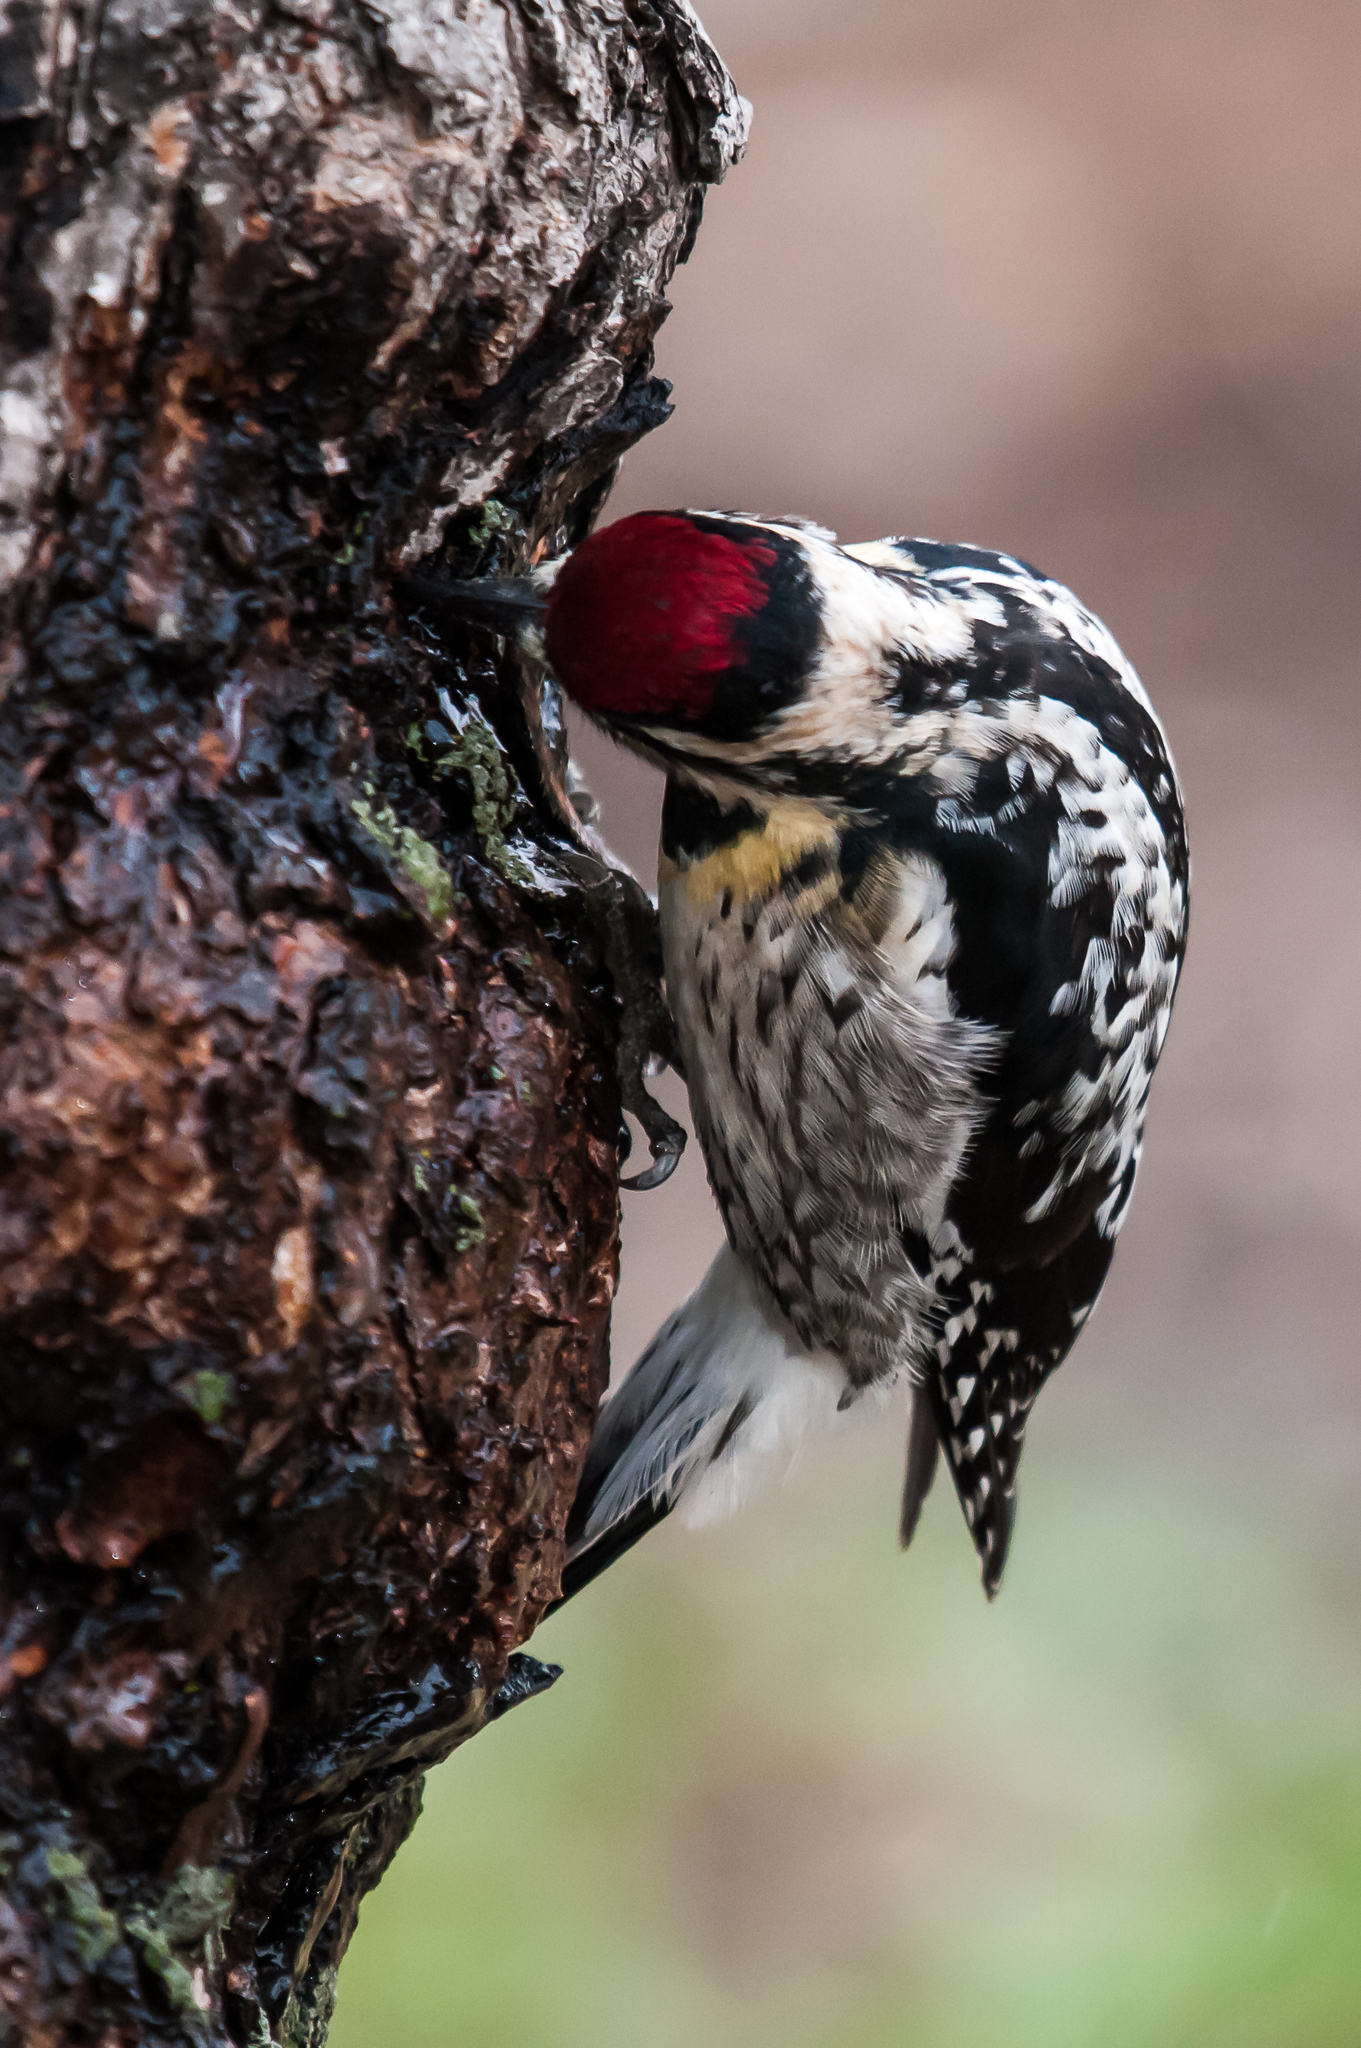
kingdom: Animalia
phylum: Chordata
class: Aves
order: Piciformes
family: Picidae
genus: Sphyrapicus
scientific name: Sphyrapicus varius
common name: Yellow-bellied sapsucker
